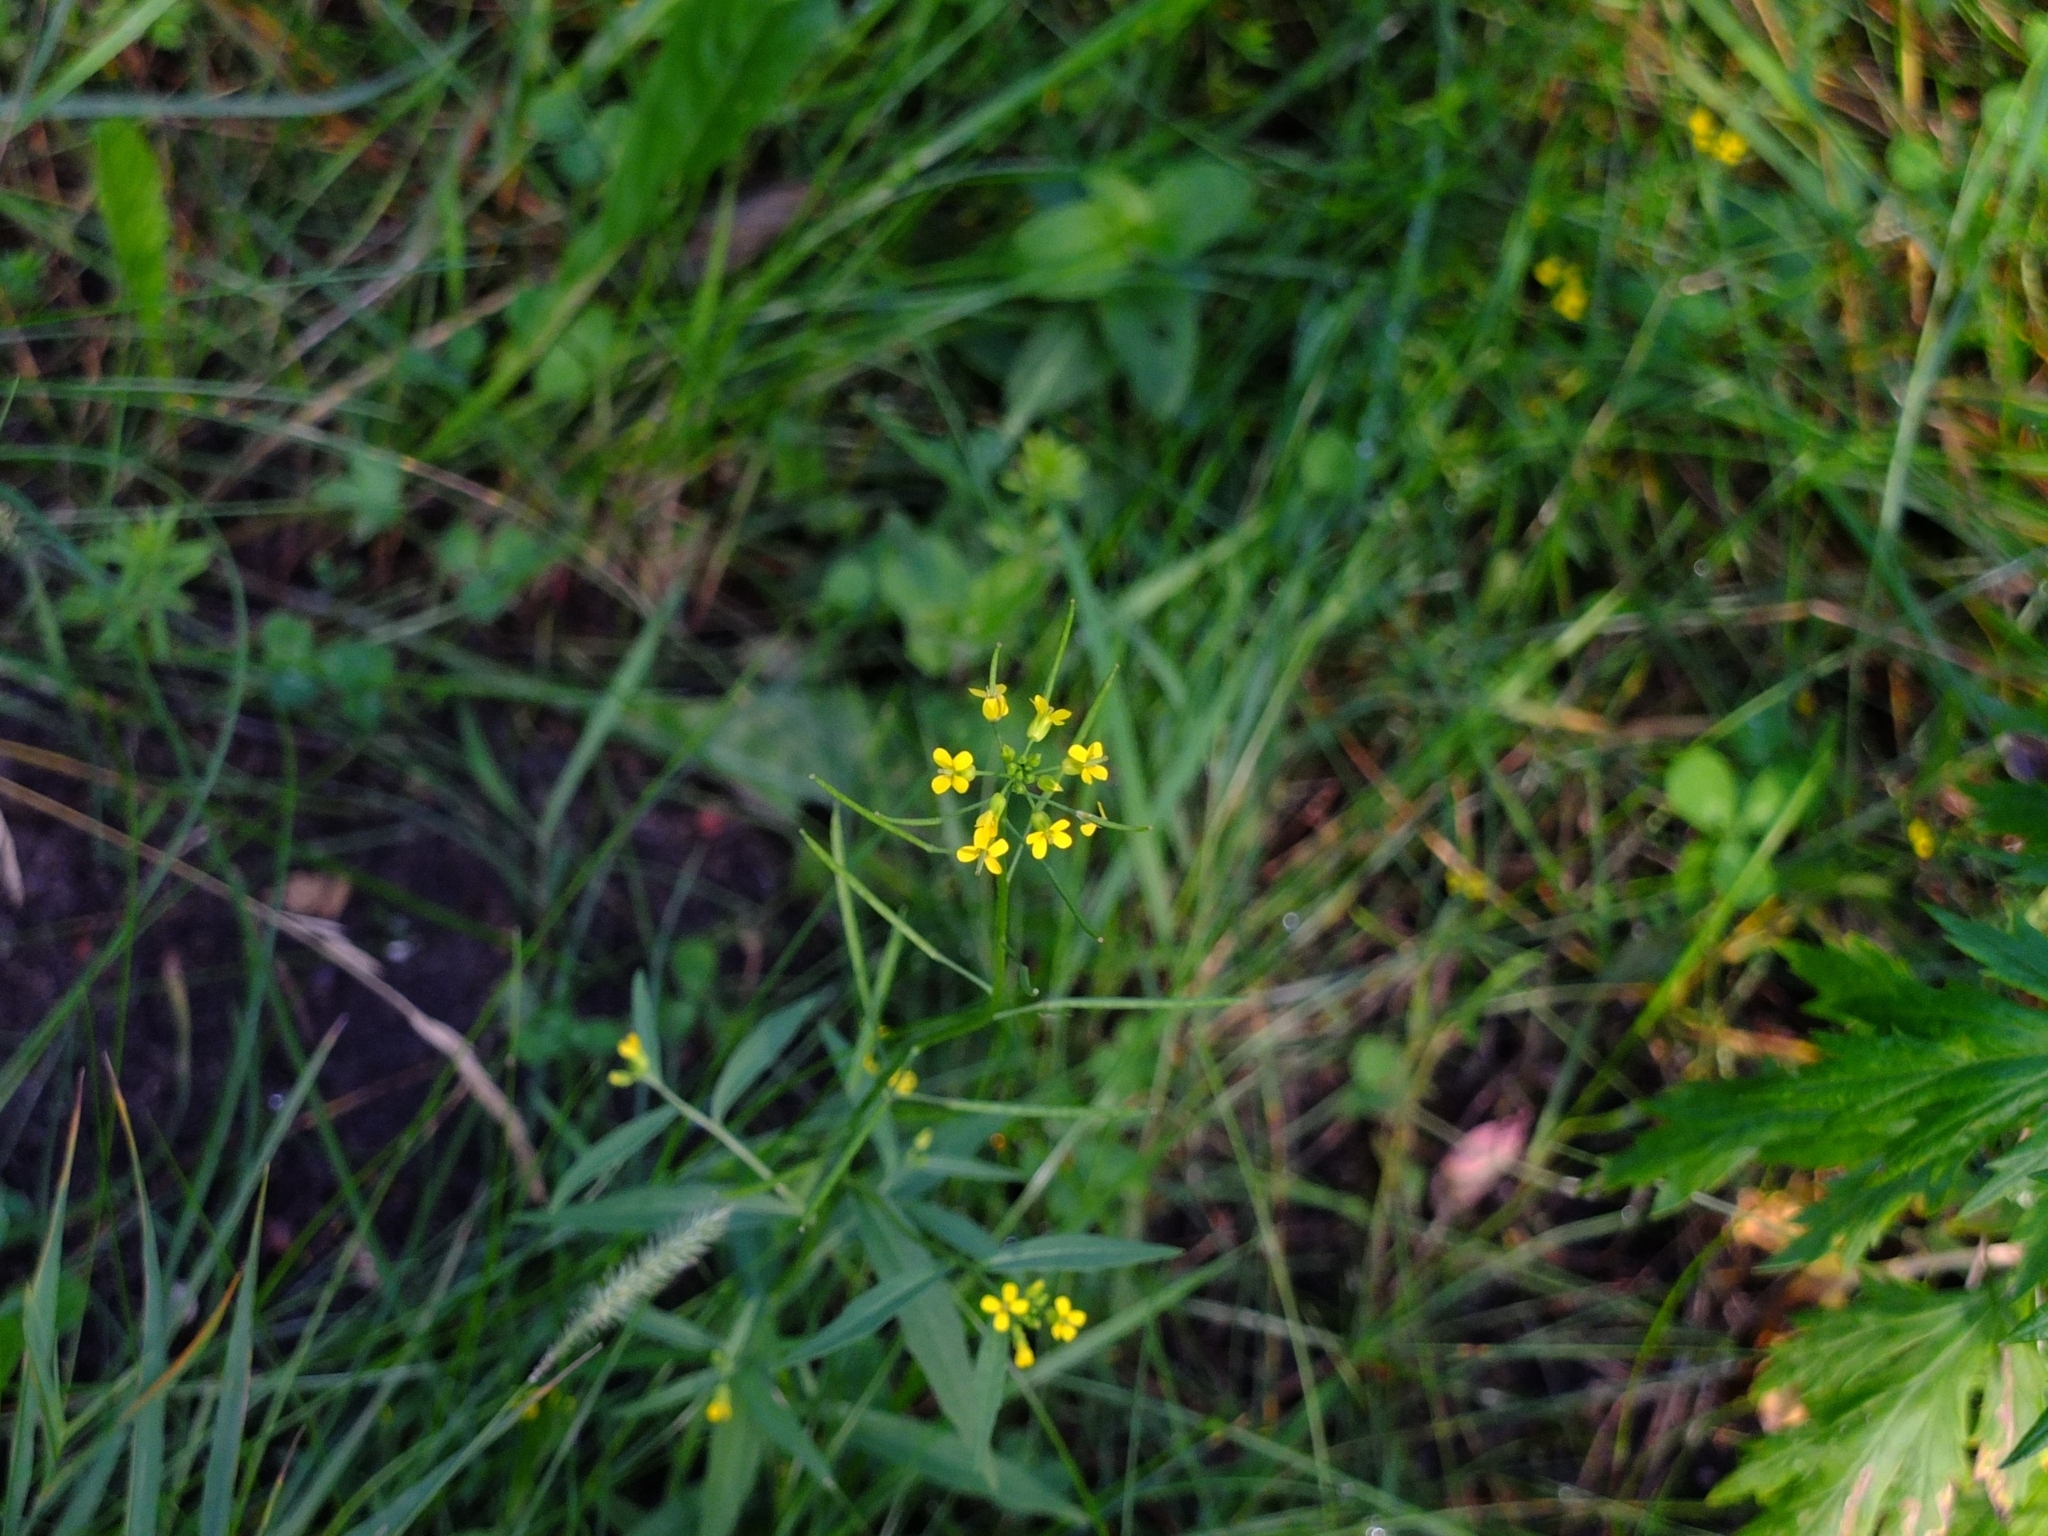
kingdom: Plantae
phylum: Tracheophyta
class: Magnoliopsida
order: Brassicales
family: Brassicaceae
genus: Erysimum
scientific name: Erysimum cheiranthoides
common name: Treacle mustard
